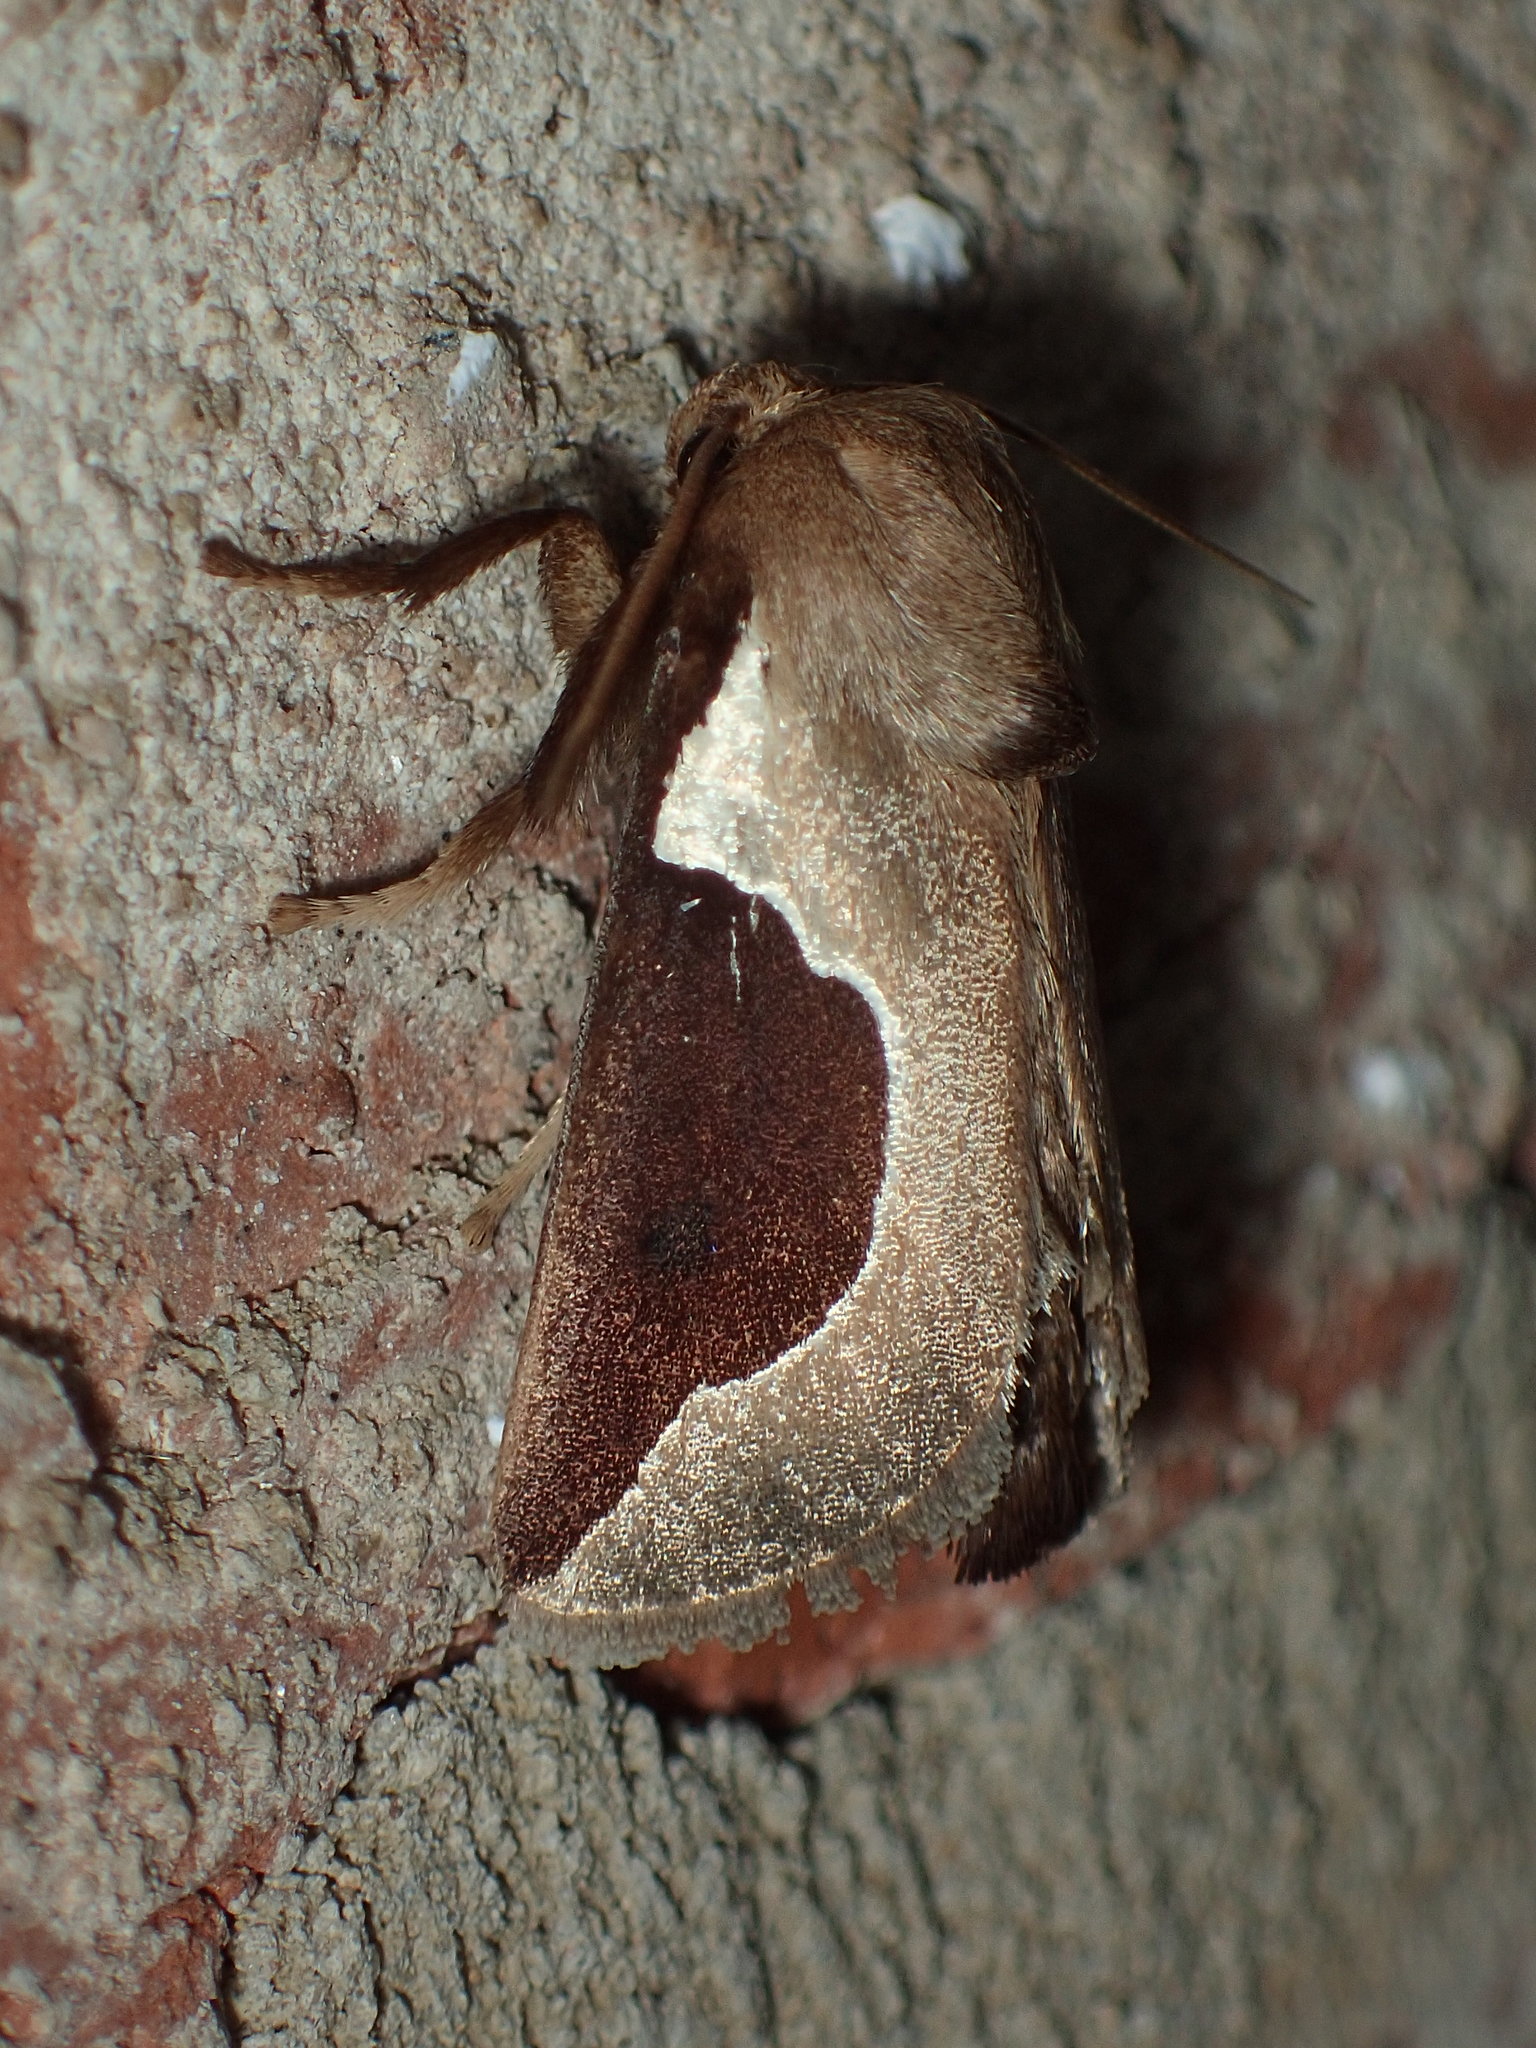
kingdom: Animalia
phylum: Arthropoda
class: Insecta
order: Lepidoptera
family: Limacodidae
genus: Prolimacodes
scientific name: Prolimacodes badia
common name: Skiff moth
